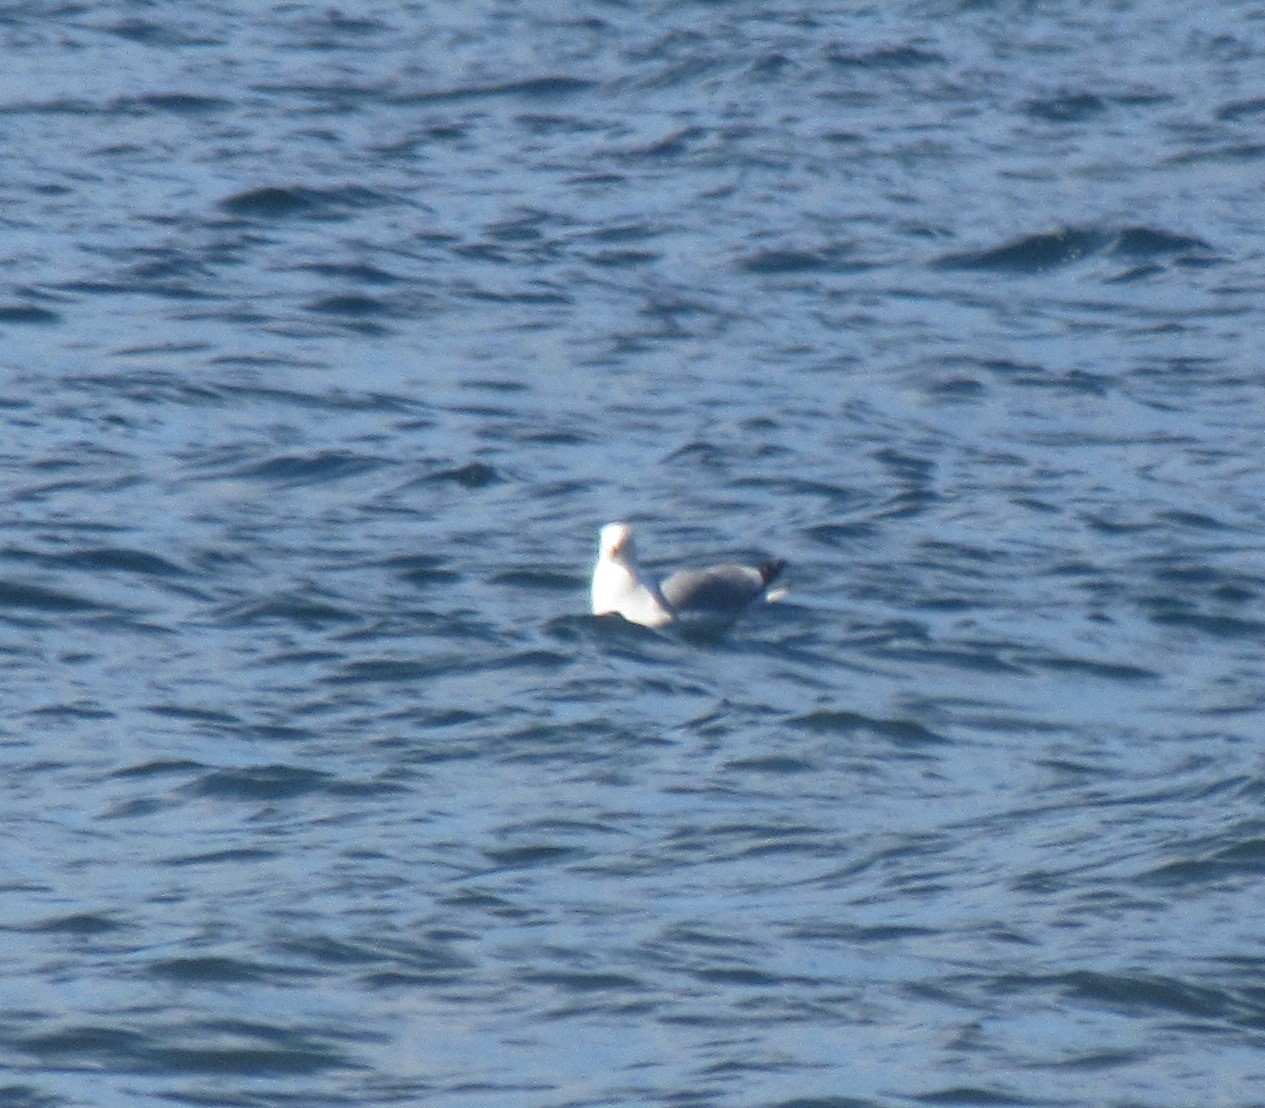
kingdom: Animalia
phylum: Chordata
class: Aves
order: Charadriiformes
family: Laridae
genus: Larus
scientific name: Larus argentatus
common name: Herring gull
